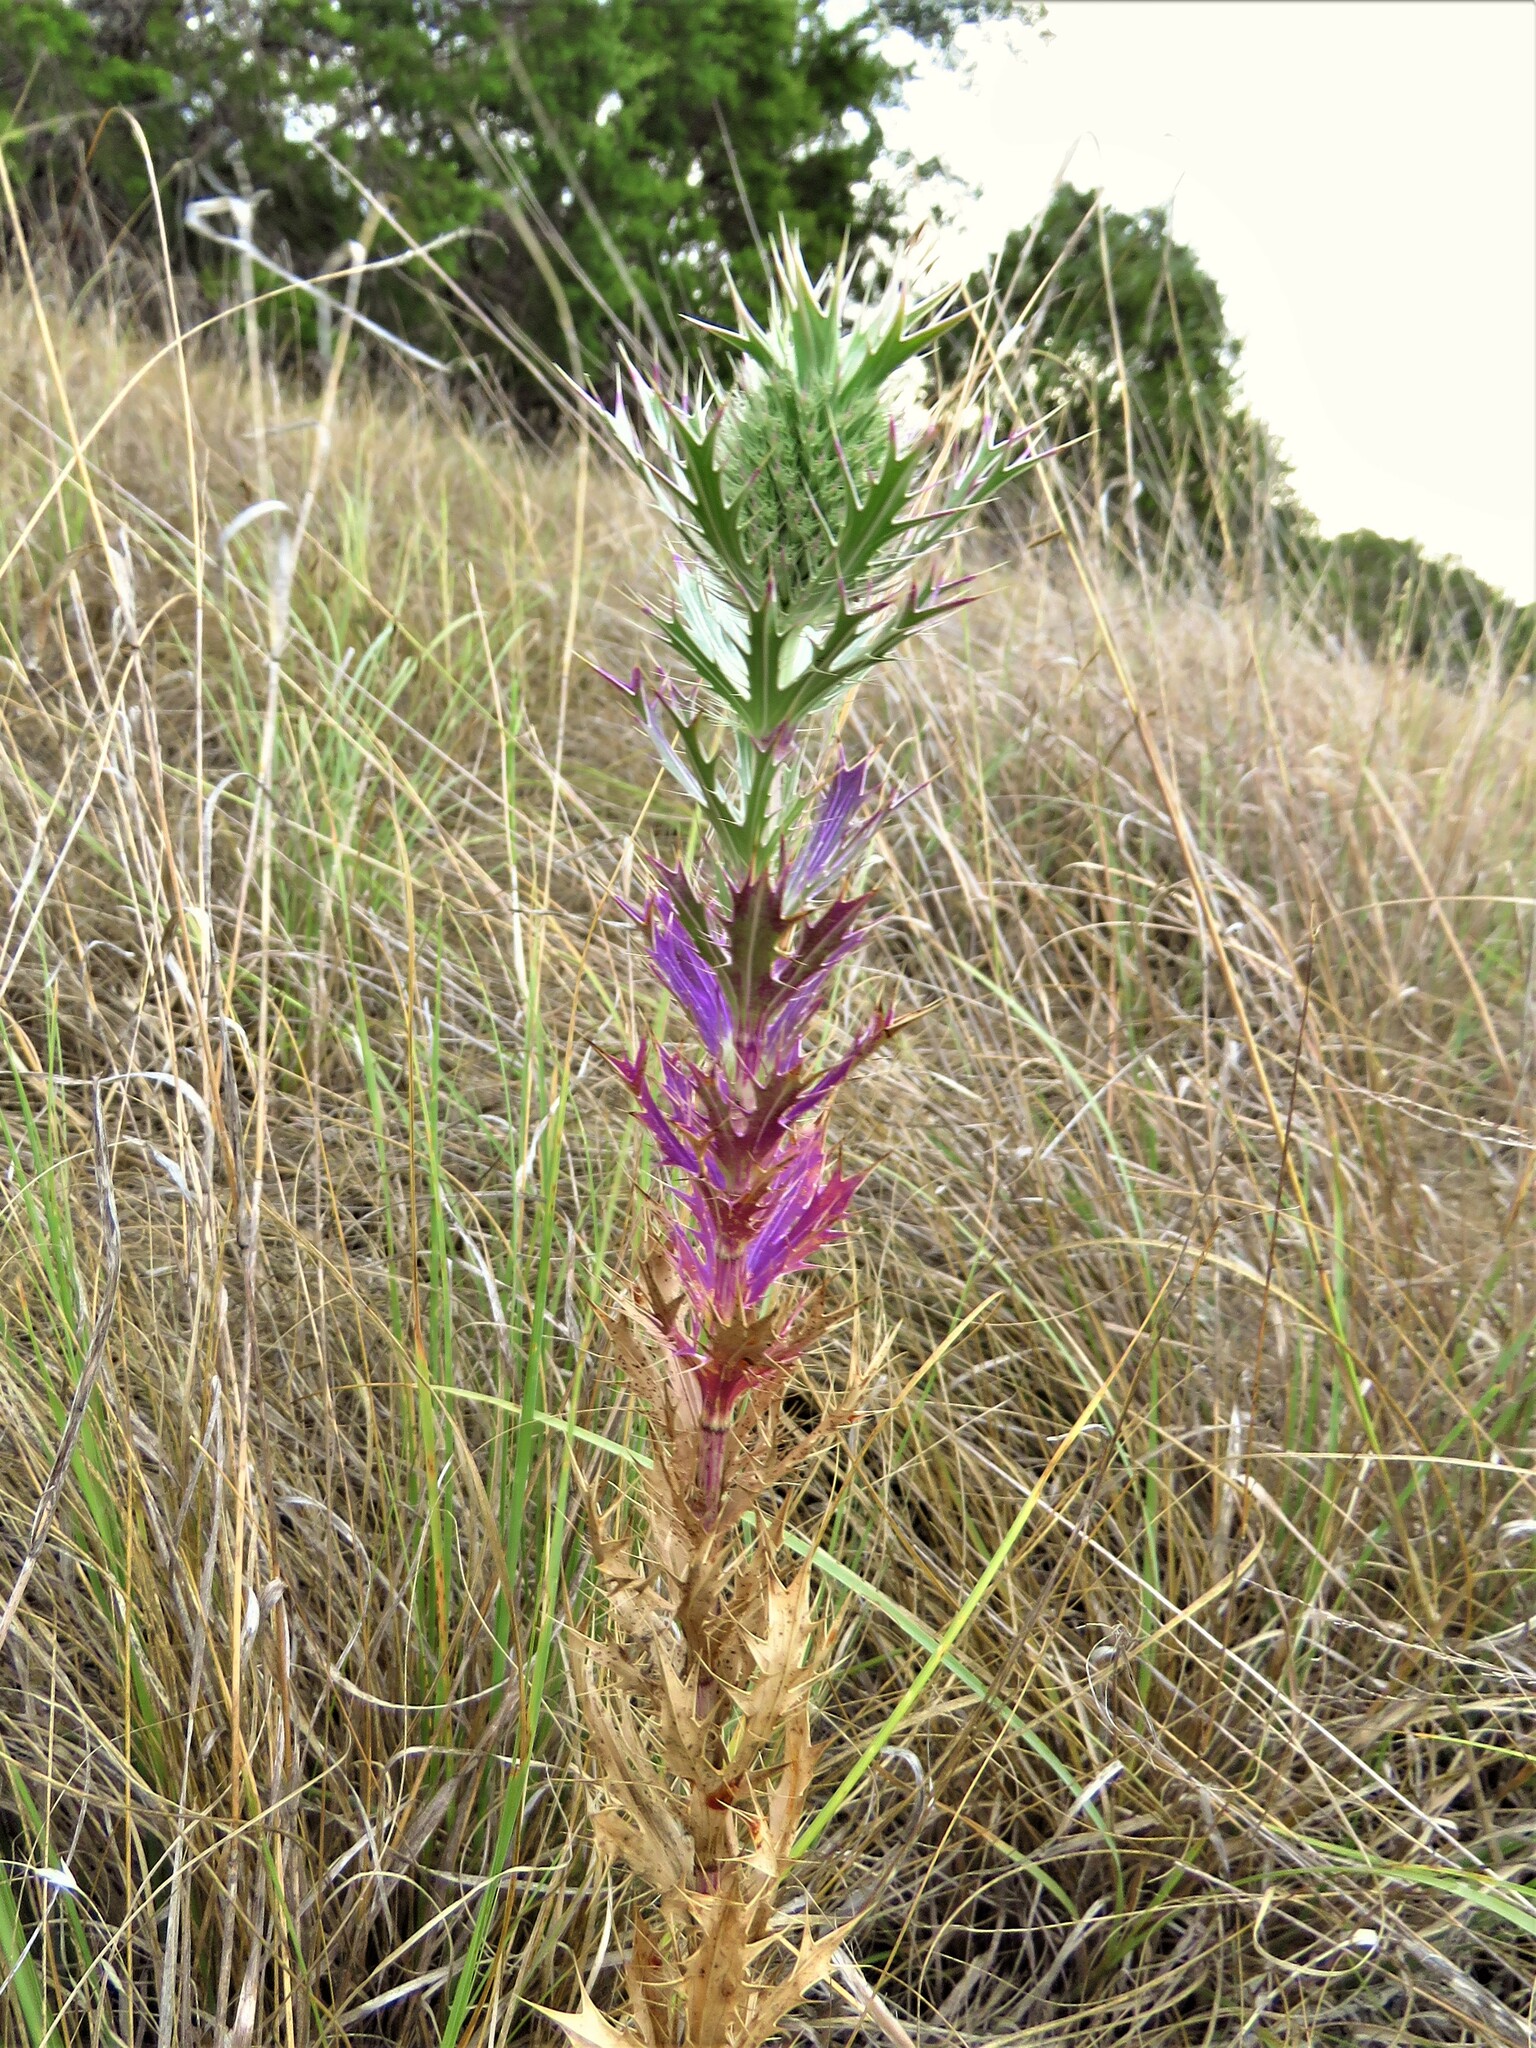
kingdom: Plantae
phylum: Tracheophyta
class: Magnoliopsida
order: Apiales
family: Apiaceae
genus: Eryngium
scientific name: Eryngium leavenworthii
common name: Leavenworth's eryngo
